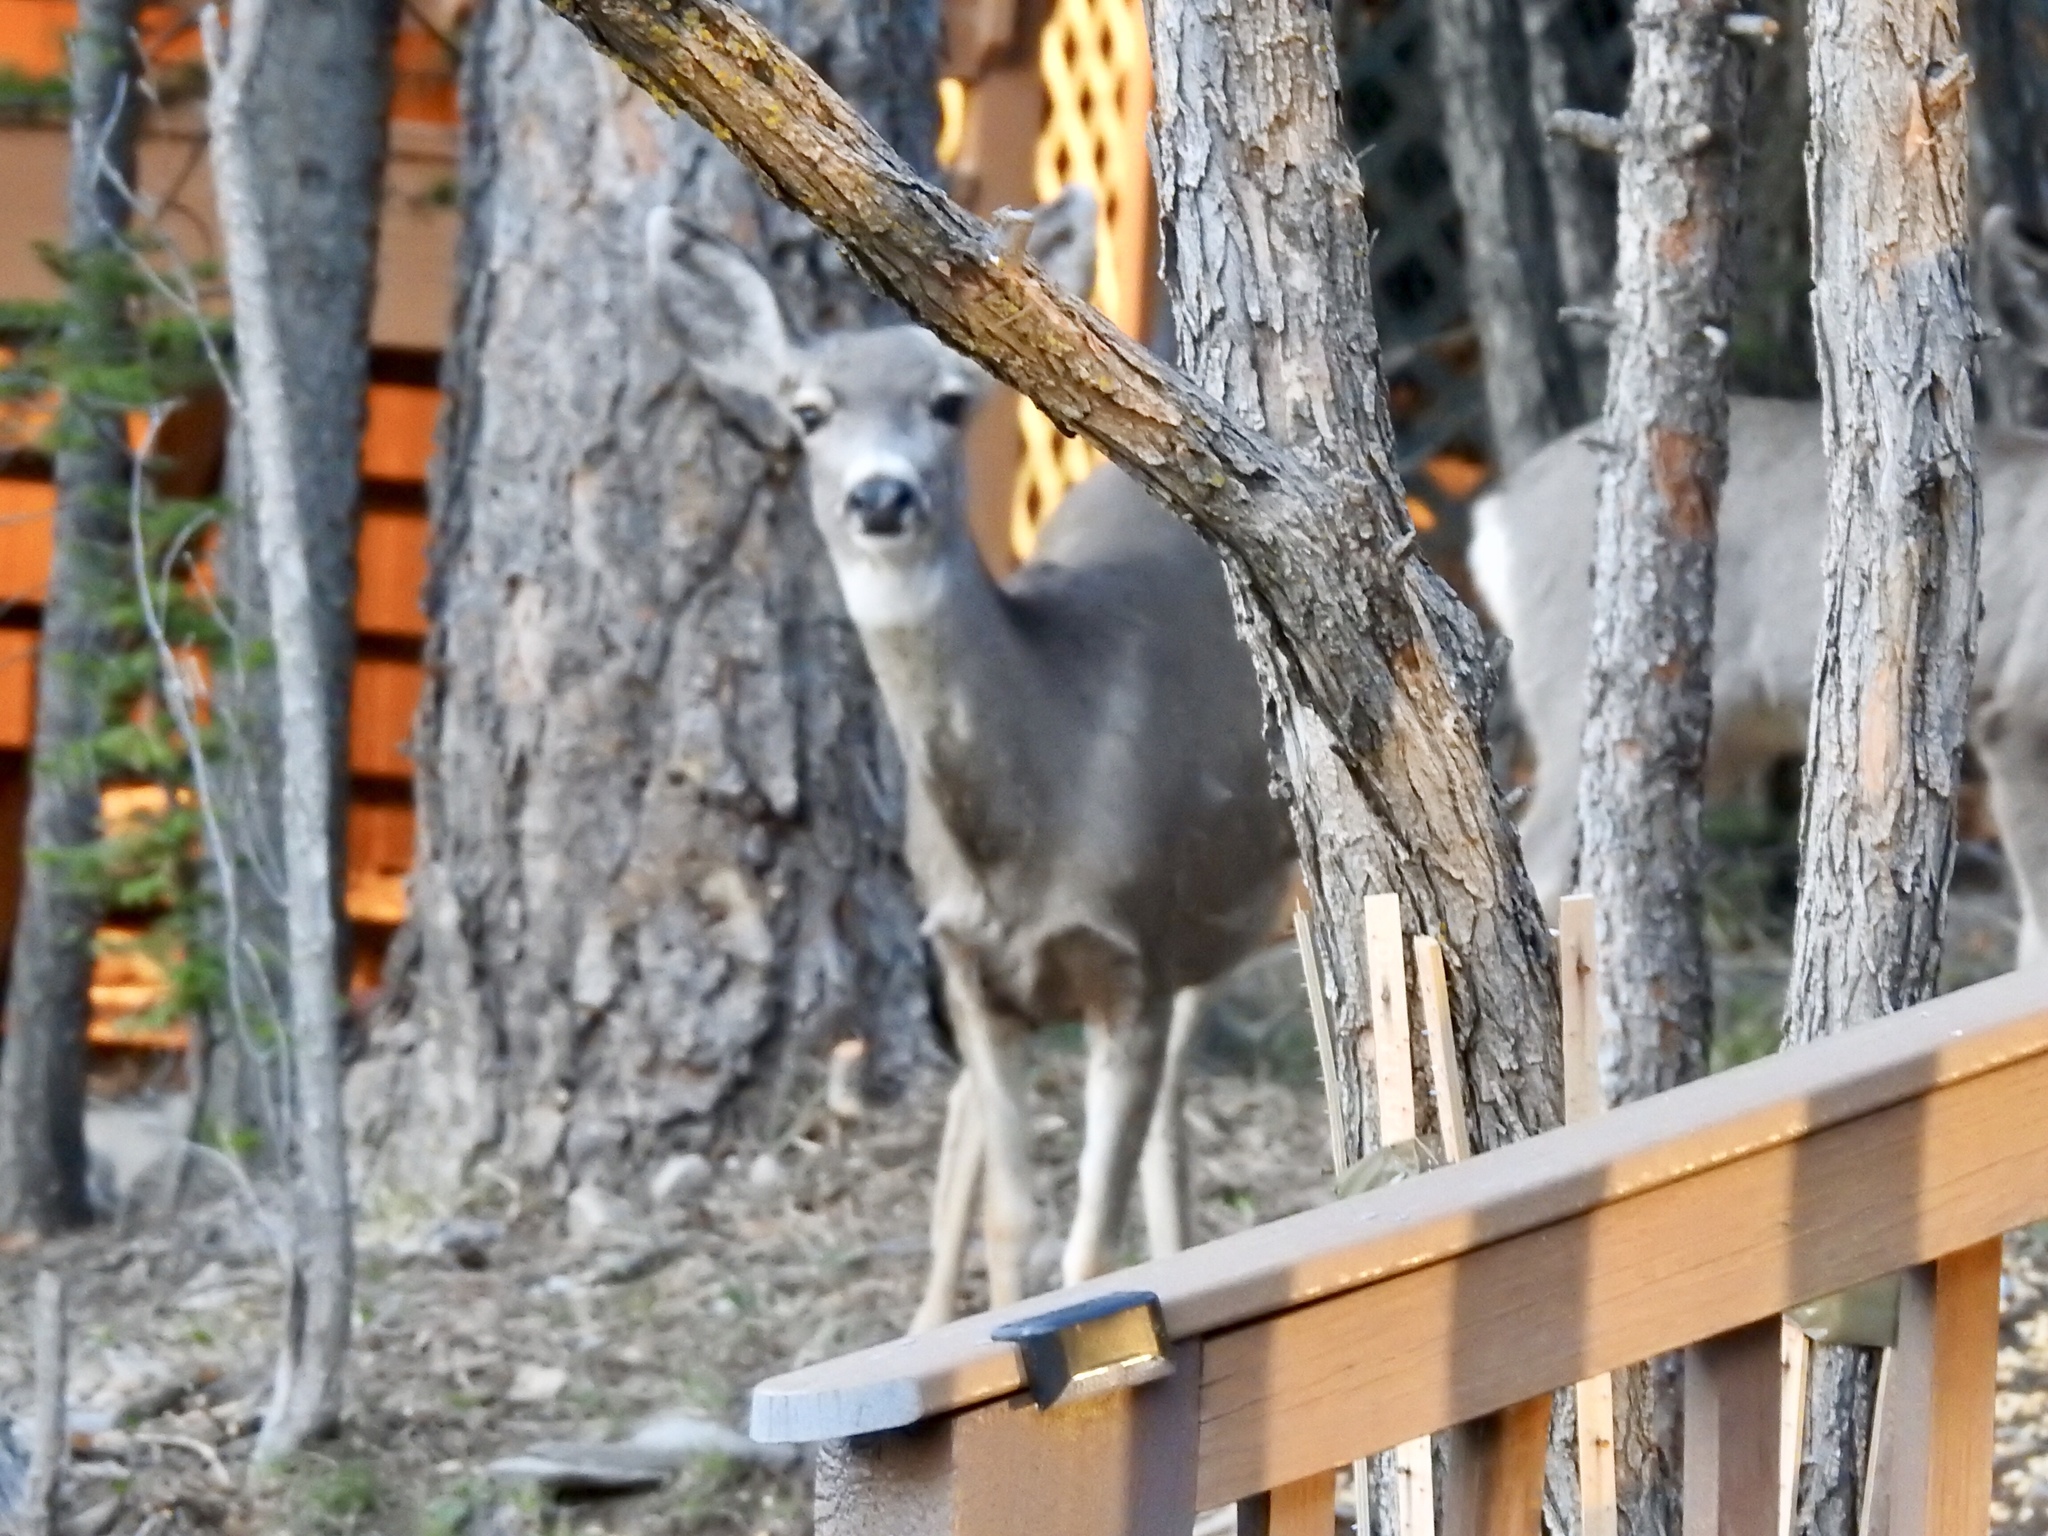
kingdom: Animalia
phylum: Chordata
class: Mammalia
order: Artiodactyla
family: Cervidae
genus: Odocoileus
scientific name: Odocoileus hemionus
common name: Mule deer
